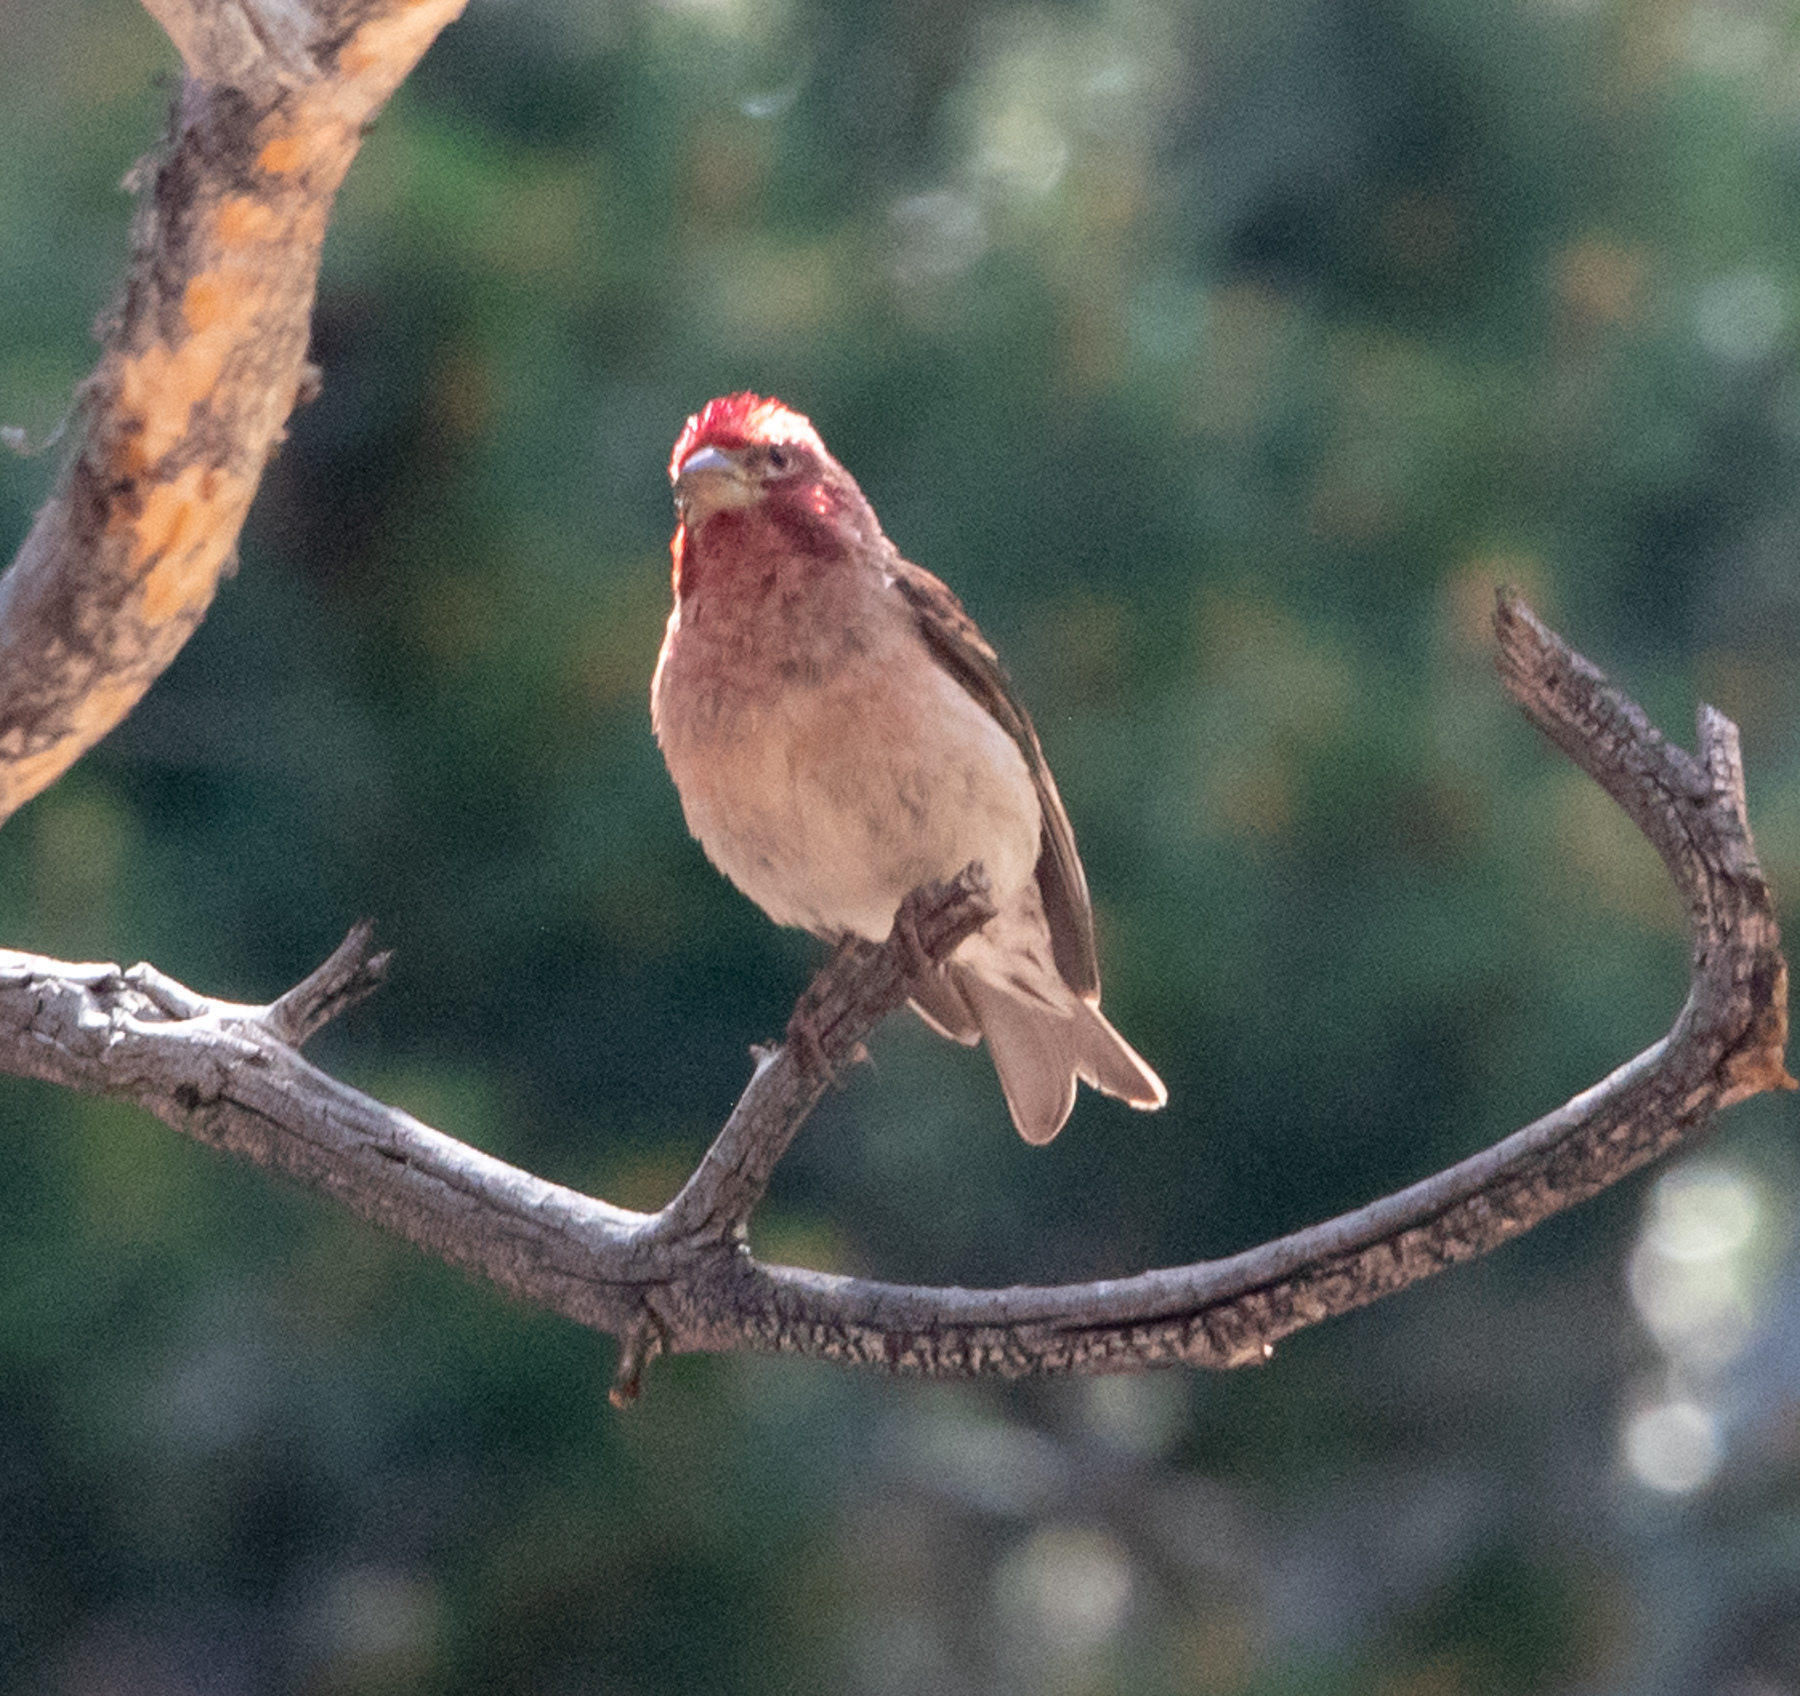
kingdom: Animalia
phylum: Chordata
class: Aves
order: Passeriformes
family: Fringillidae
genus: Haemorhous
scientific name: Haemorhous cassinii
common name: Cassin's finch
